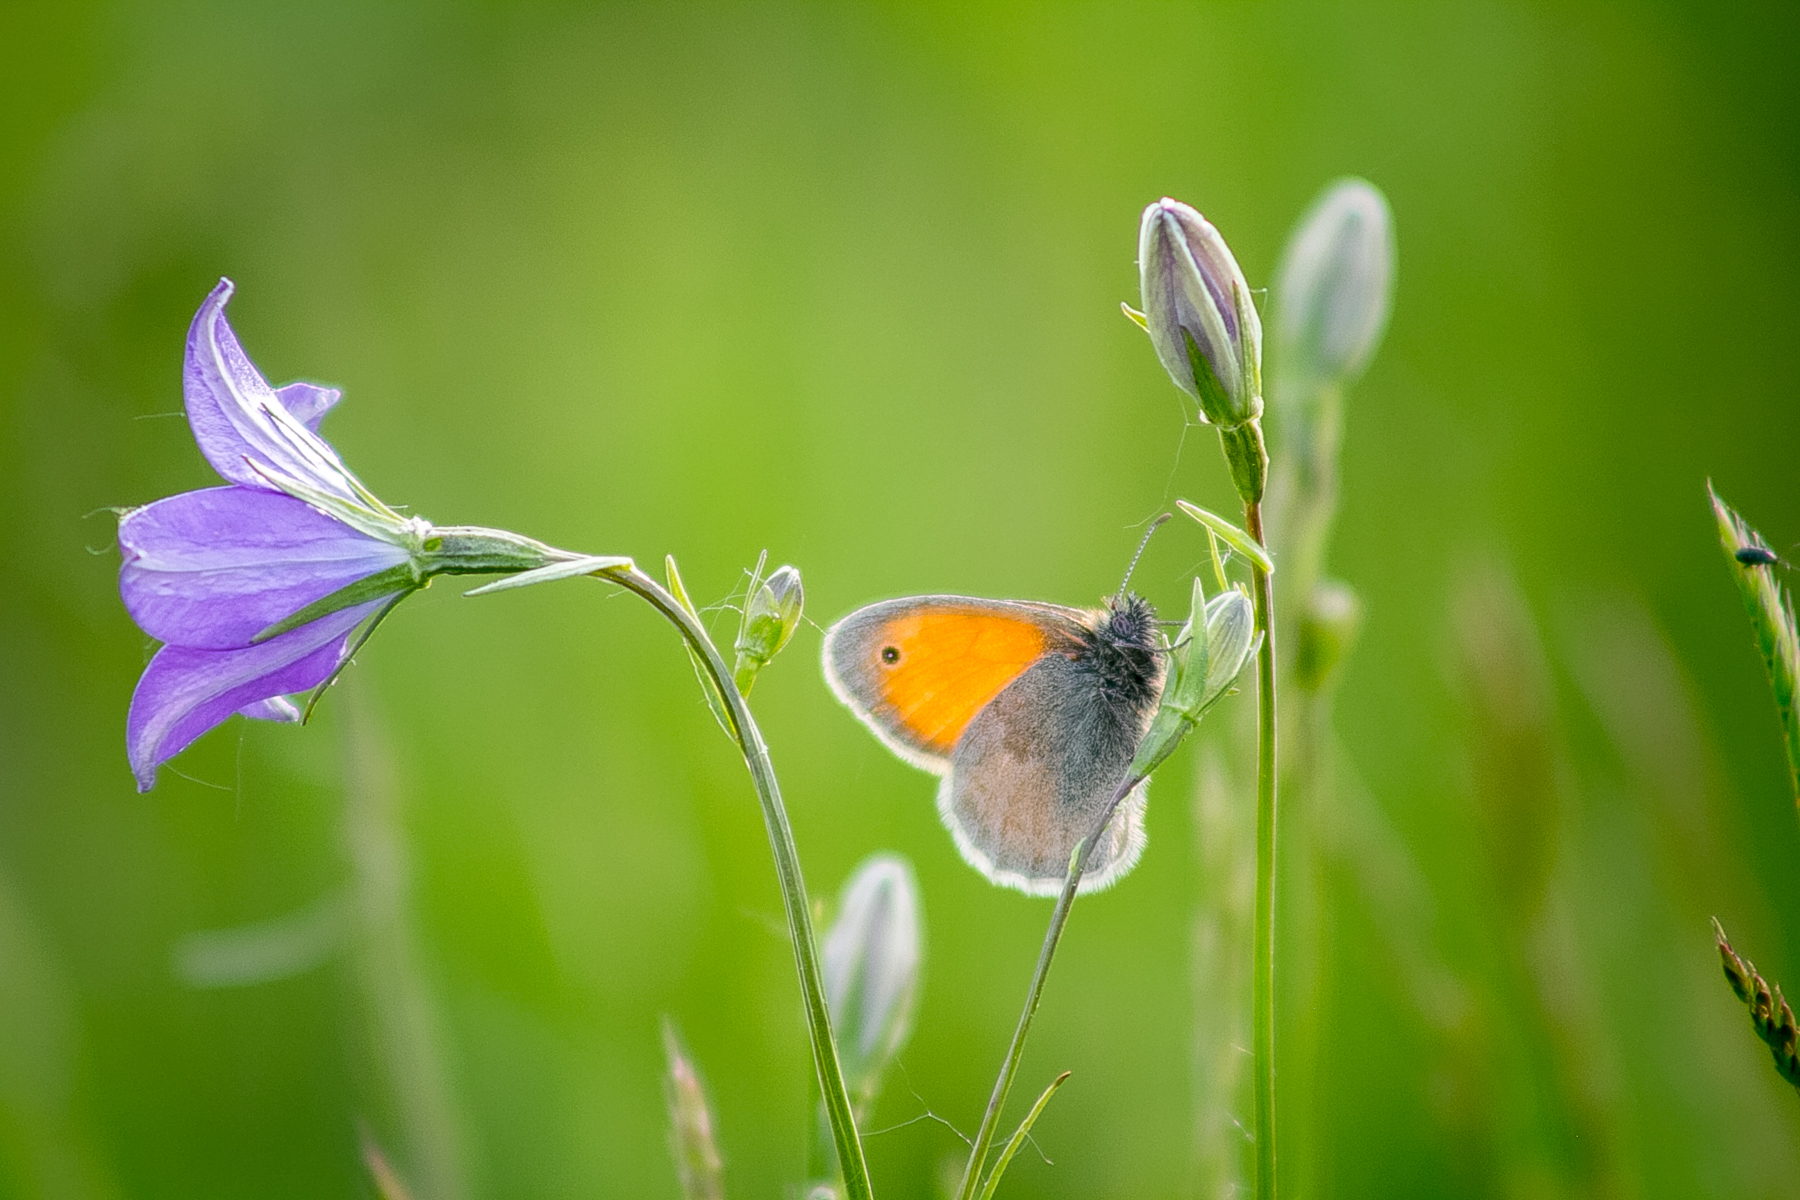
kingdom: Animalia
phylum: Arthropoda
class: Insecta
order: Lepidoptera
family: Nymphalidae
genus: Coenonympha
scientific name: Coenonympha pamphilus
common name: Small heath
